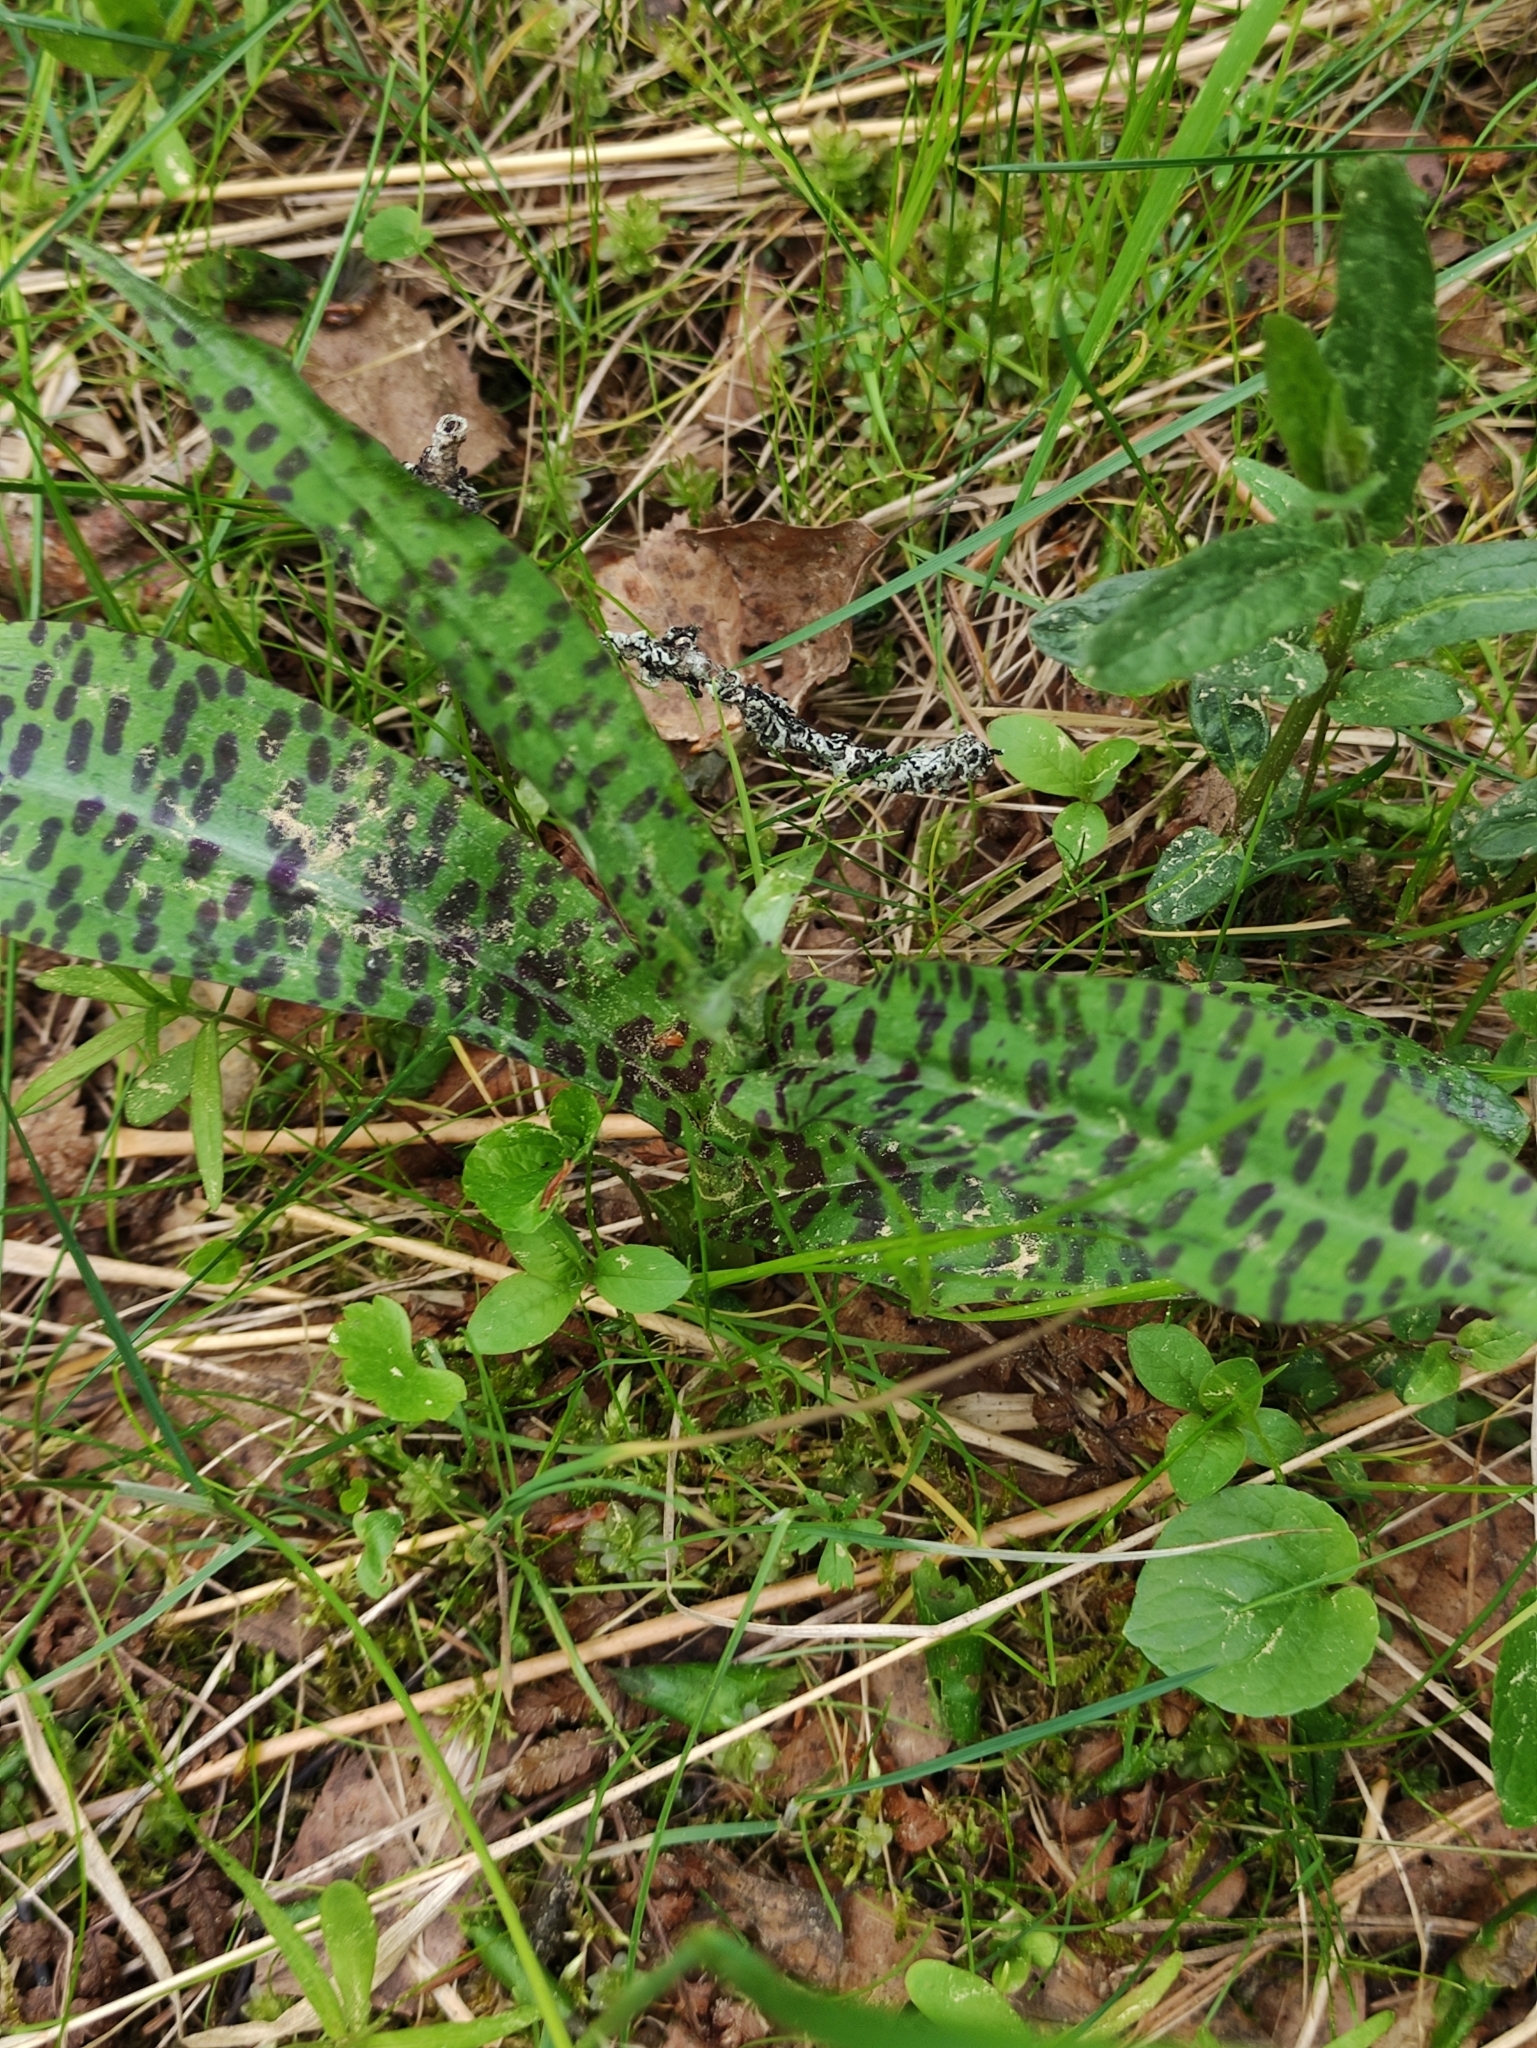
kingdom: Plantae
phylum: Tracheophyta
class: Liliopsida
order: Asparagales
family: Orchidaceae
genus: Dactylorhiza
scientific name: Dactylorhiza maculata
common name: Heath spotted-orchid
